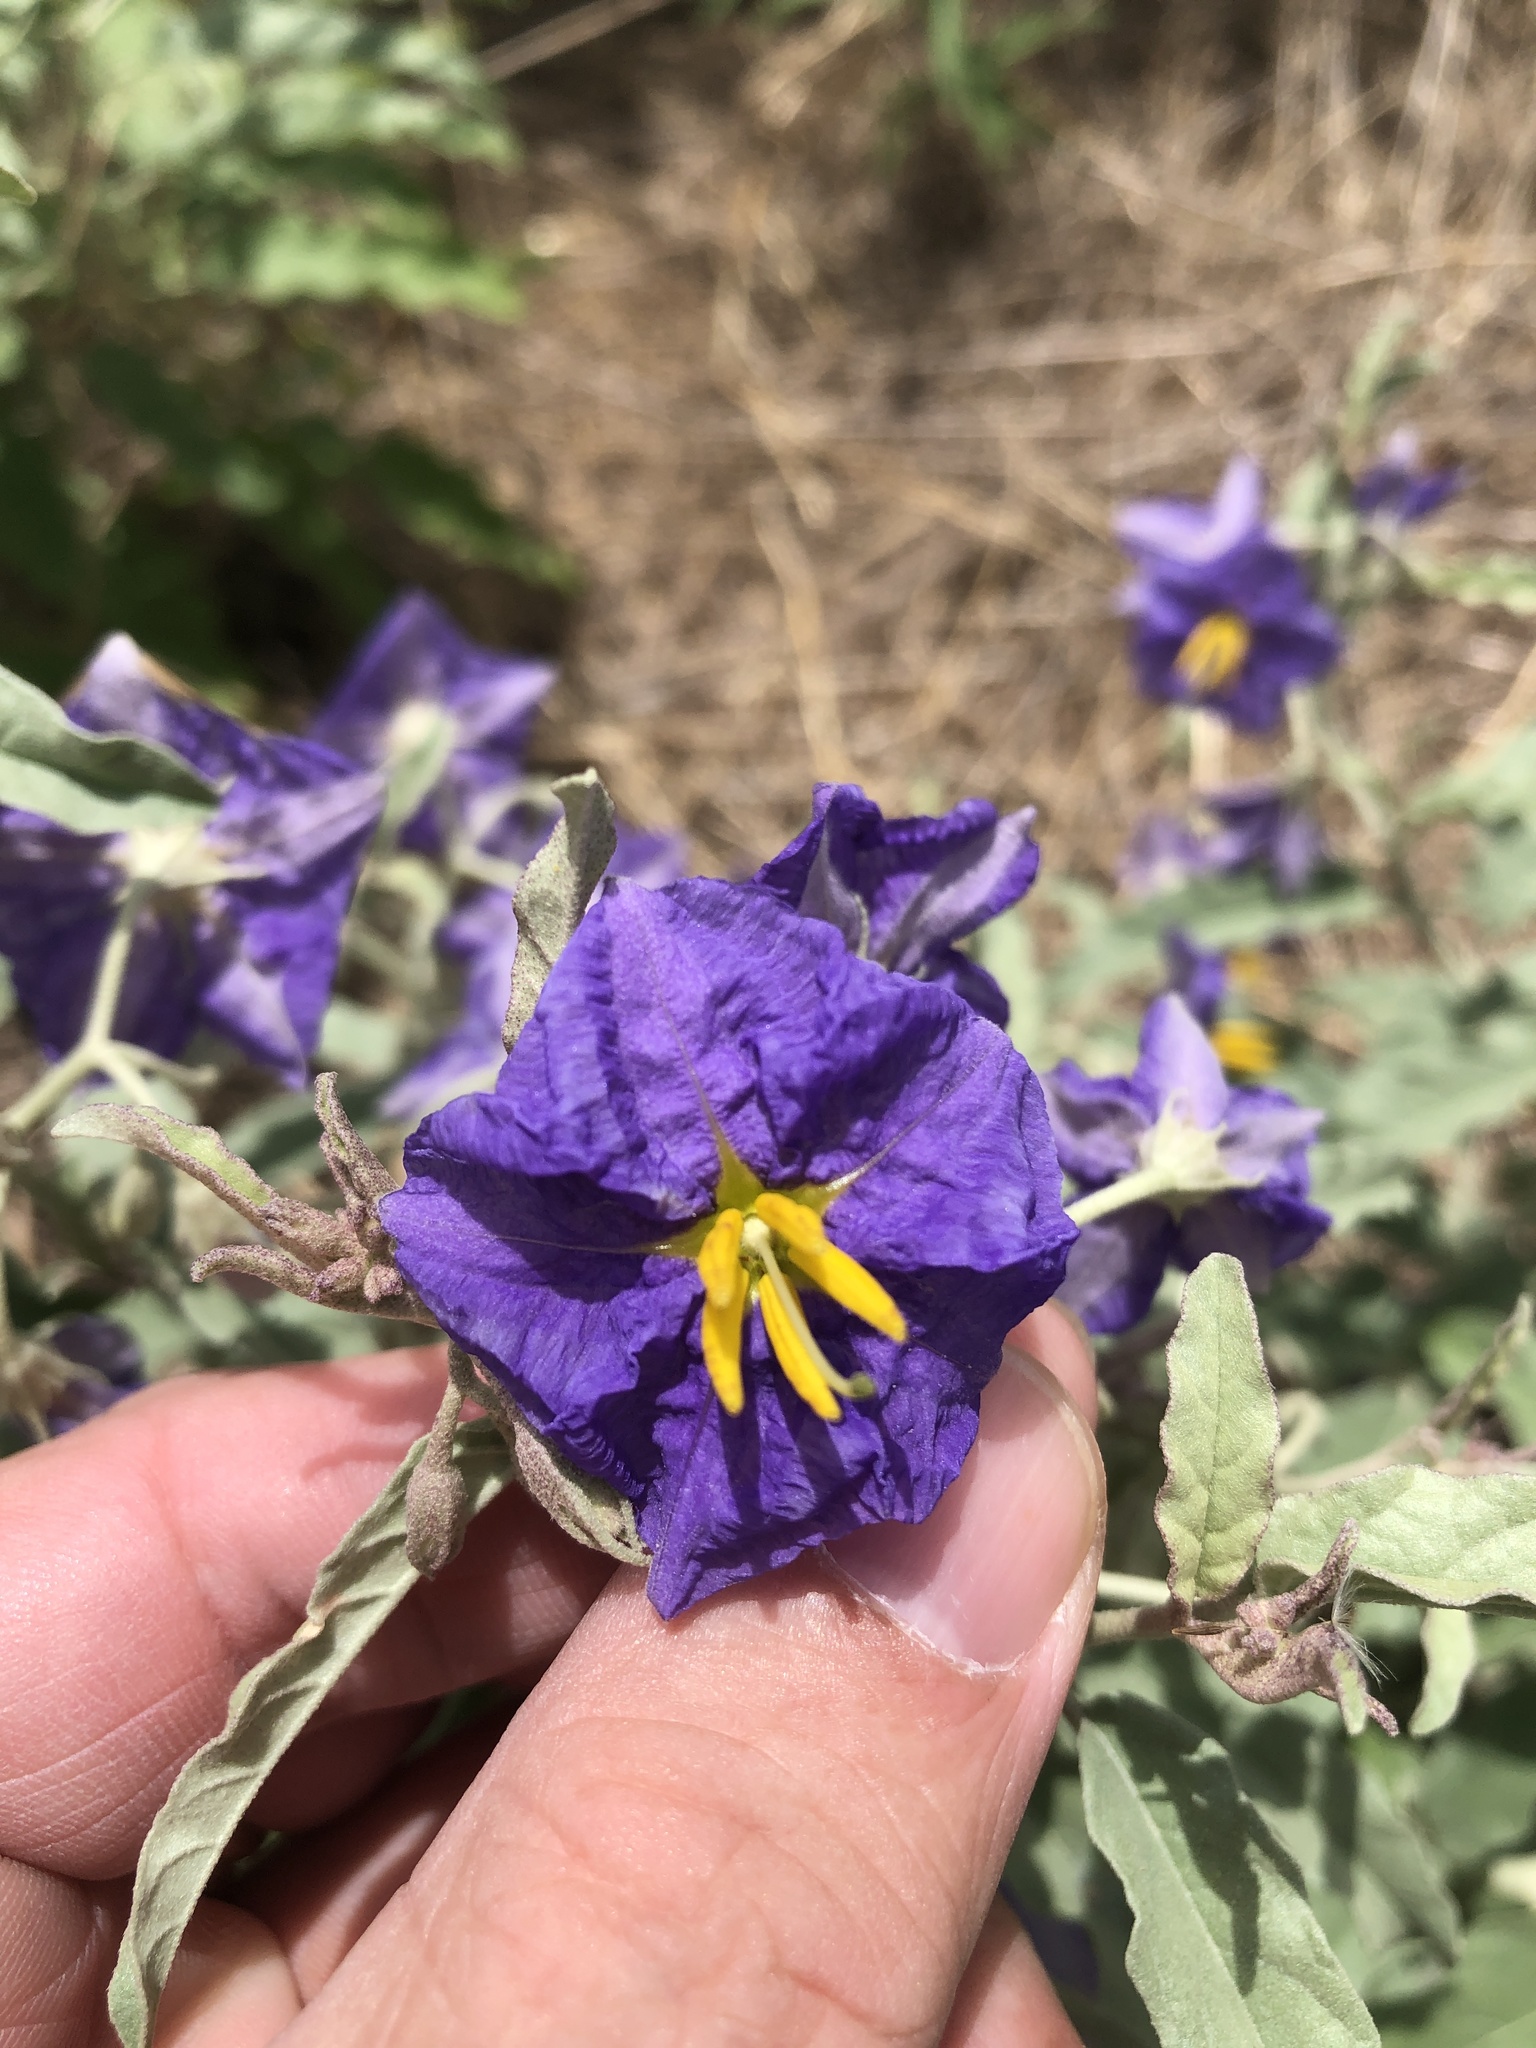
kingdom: Plantae
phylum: Tracheophyta
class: Magnoliopsida
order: Solanales
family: Solanaceae
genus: Solanum
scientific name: Solanum elaeagnifolium
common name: Silverleaf nightshade
